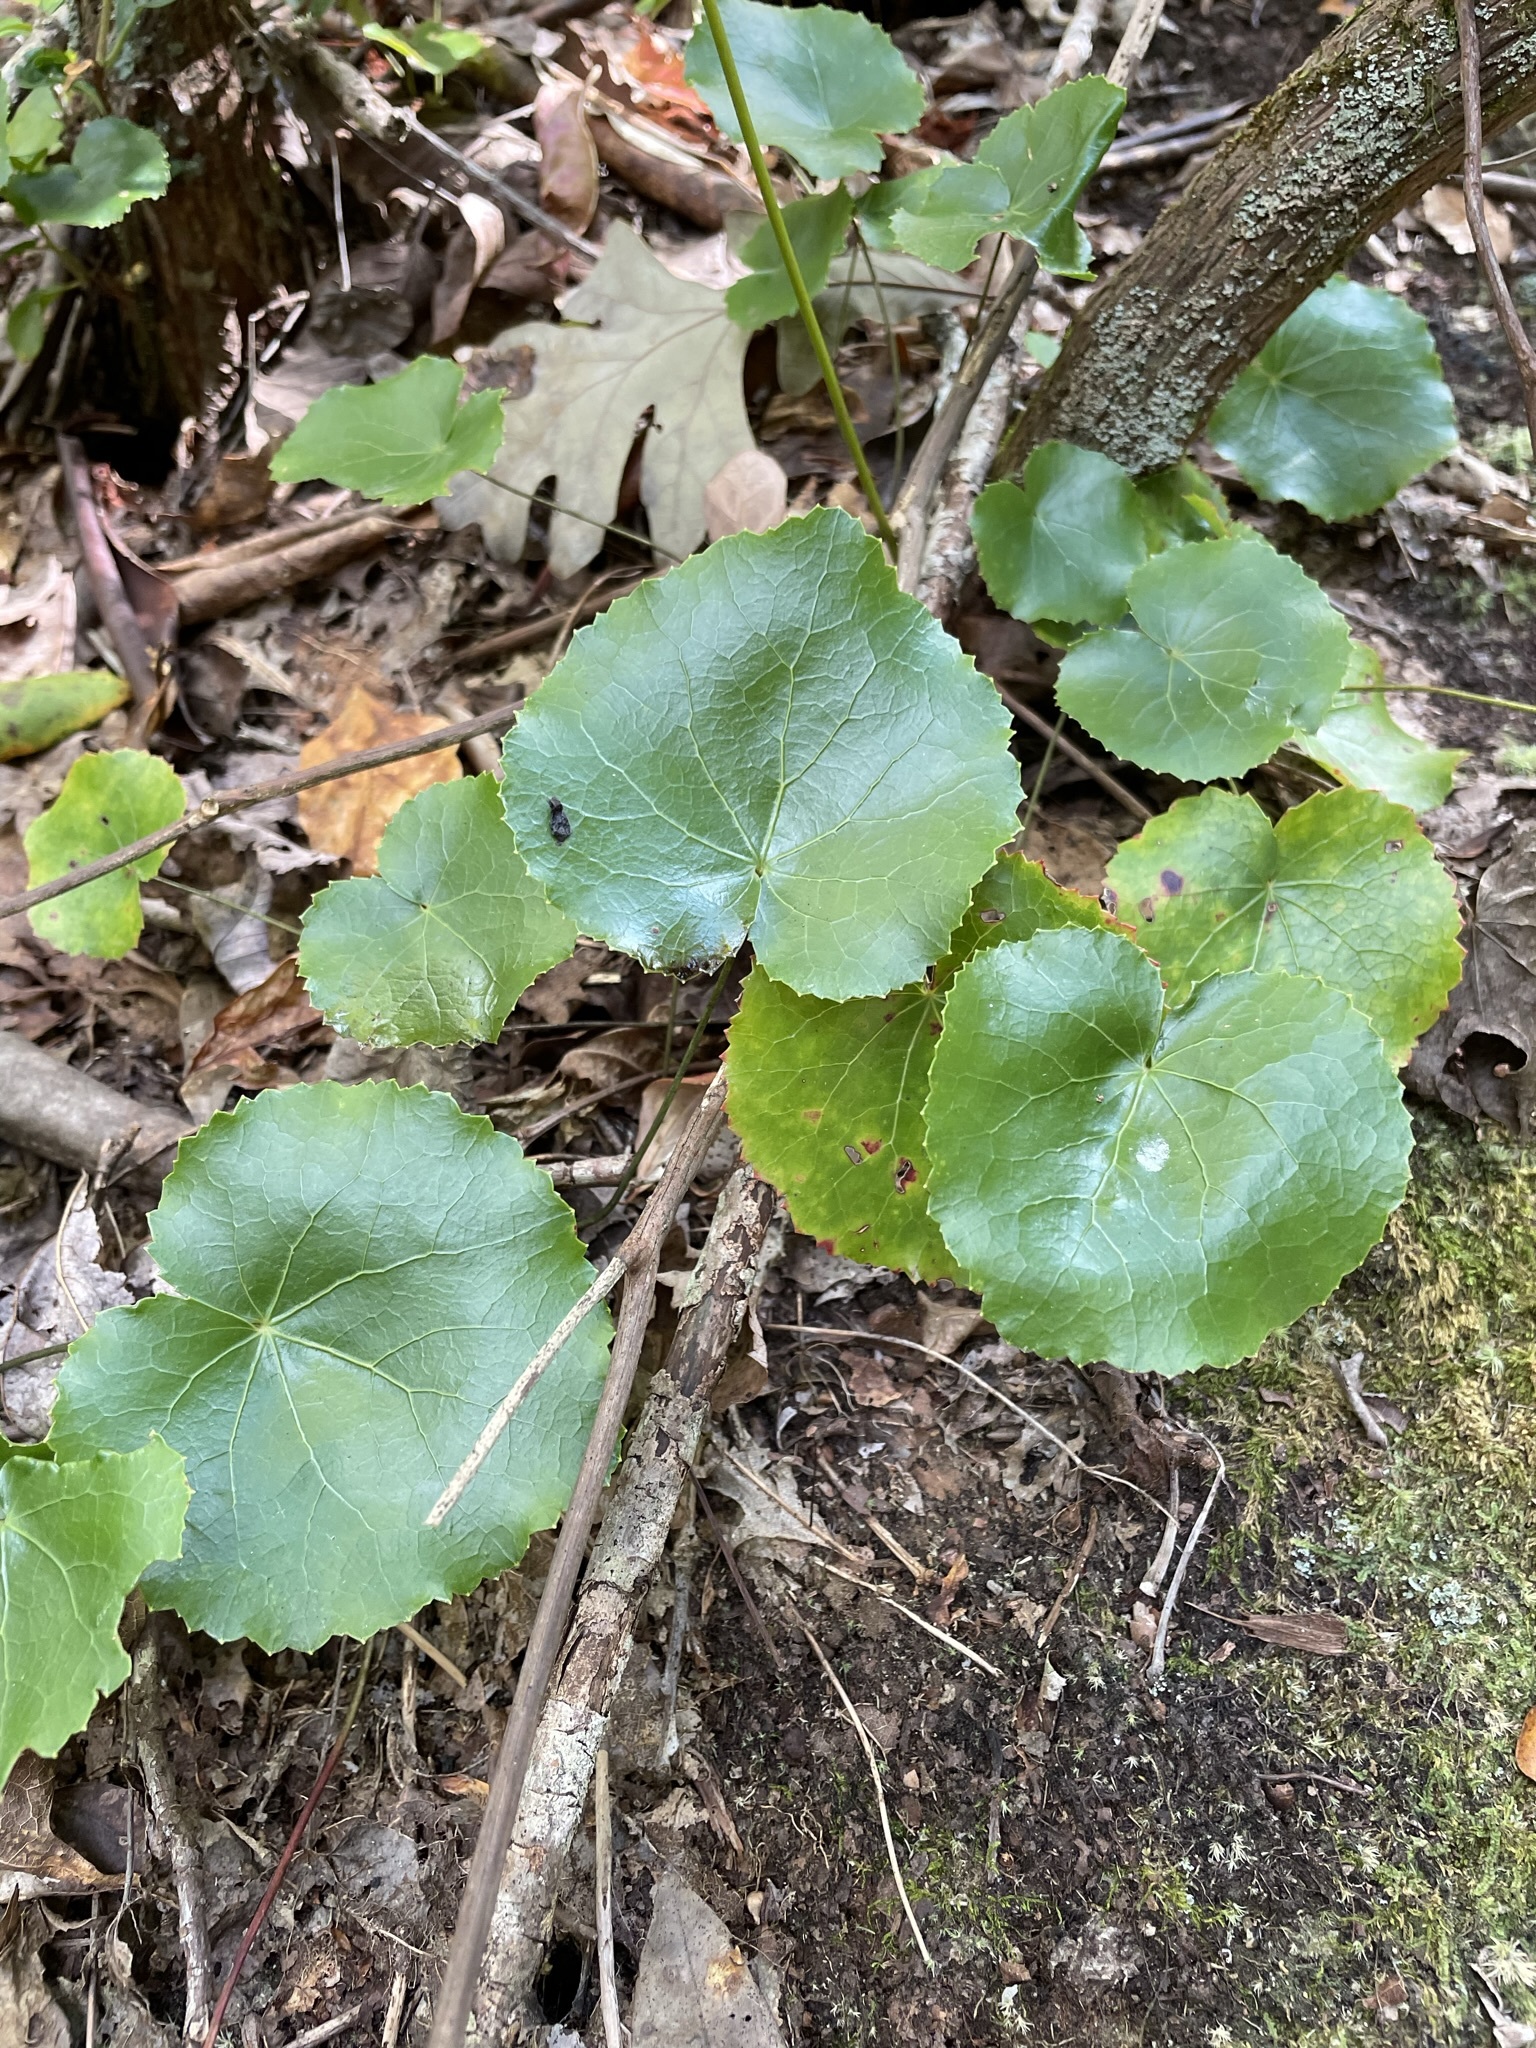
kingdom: Plantae
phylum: Tracheophyta
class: Magnoliopsida
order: Ericales
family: Diapensiaceae
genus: Galax
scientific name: Galax urceolata
